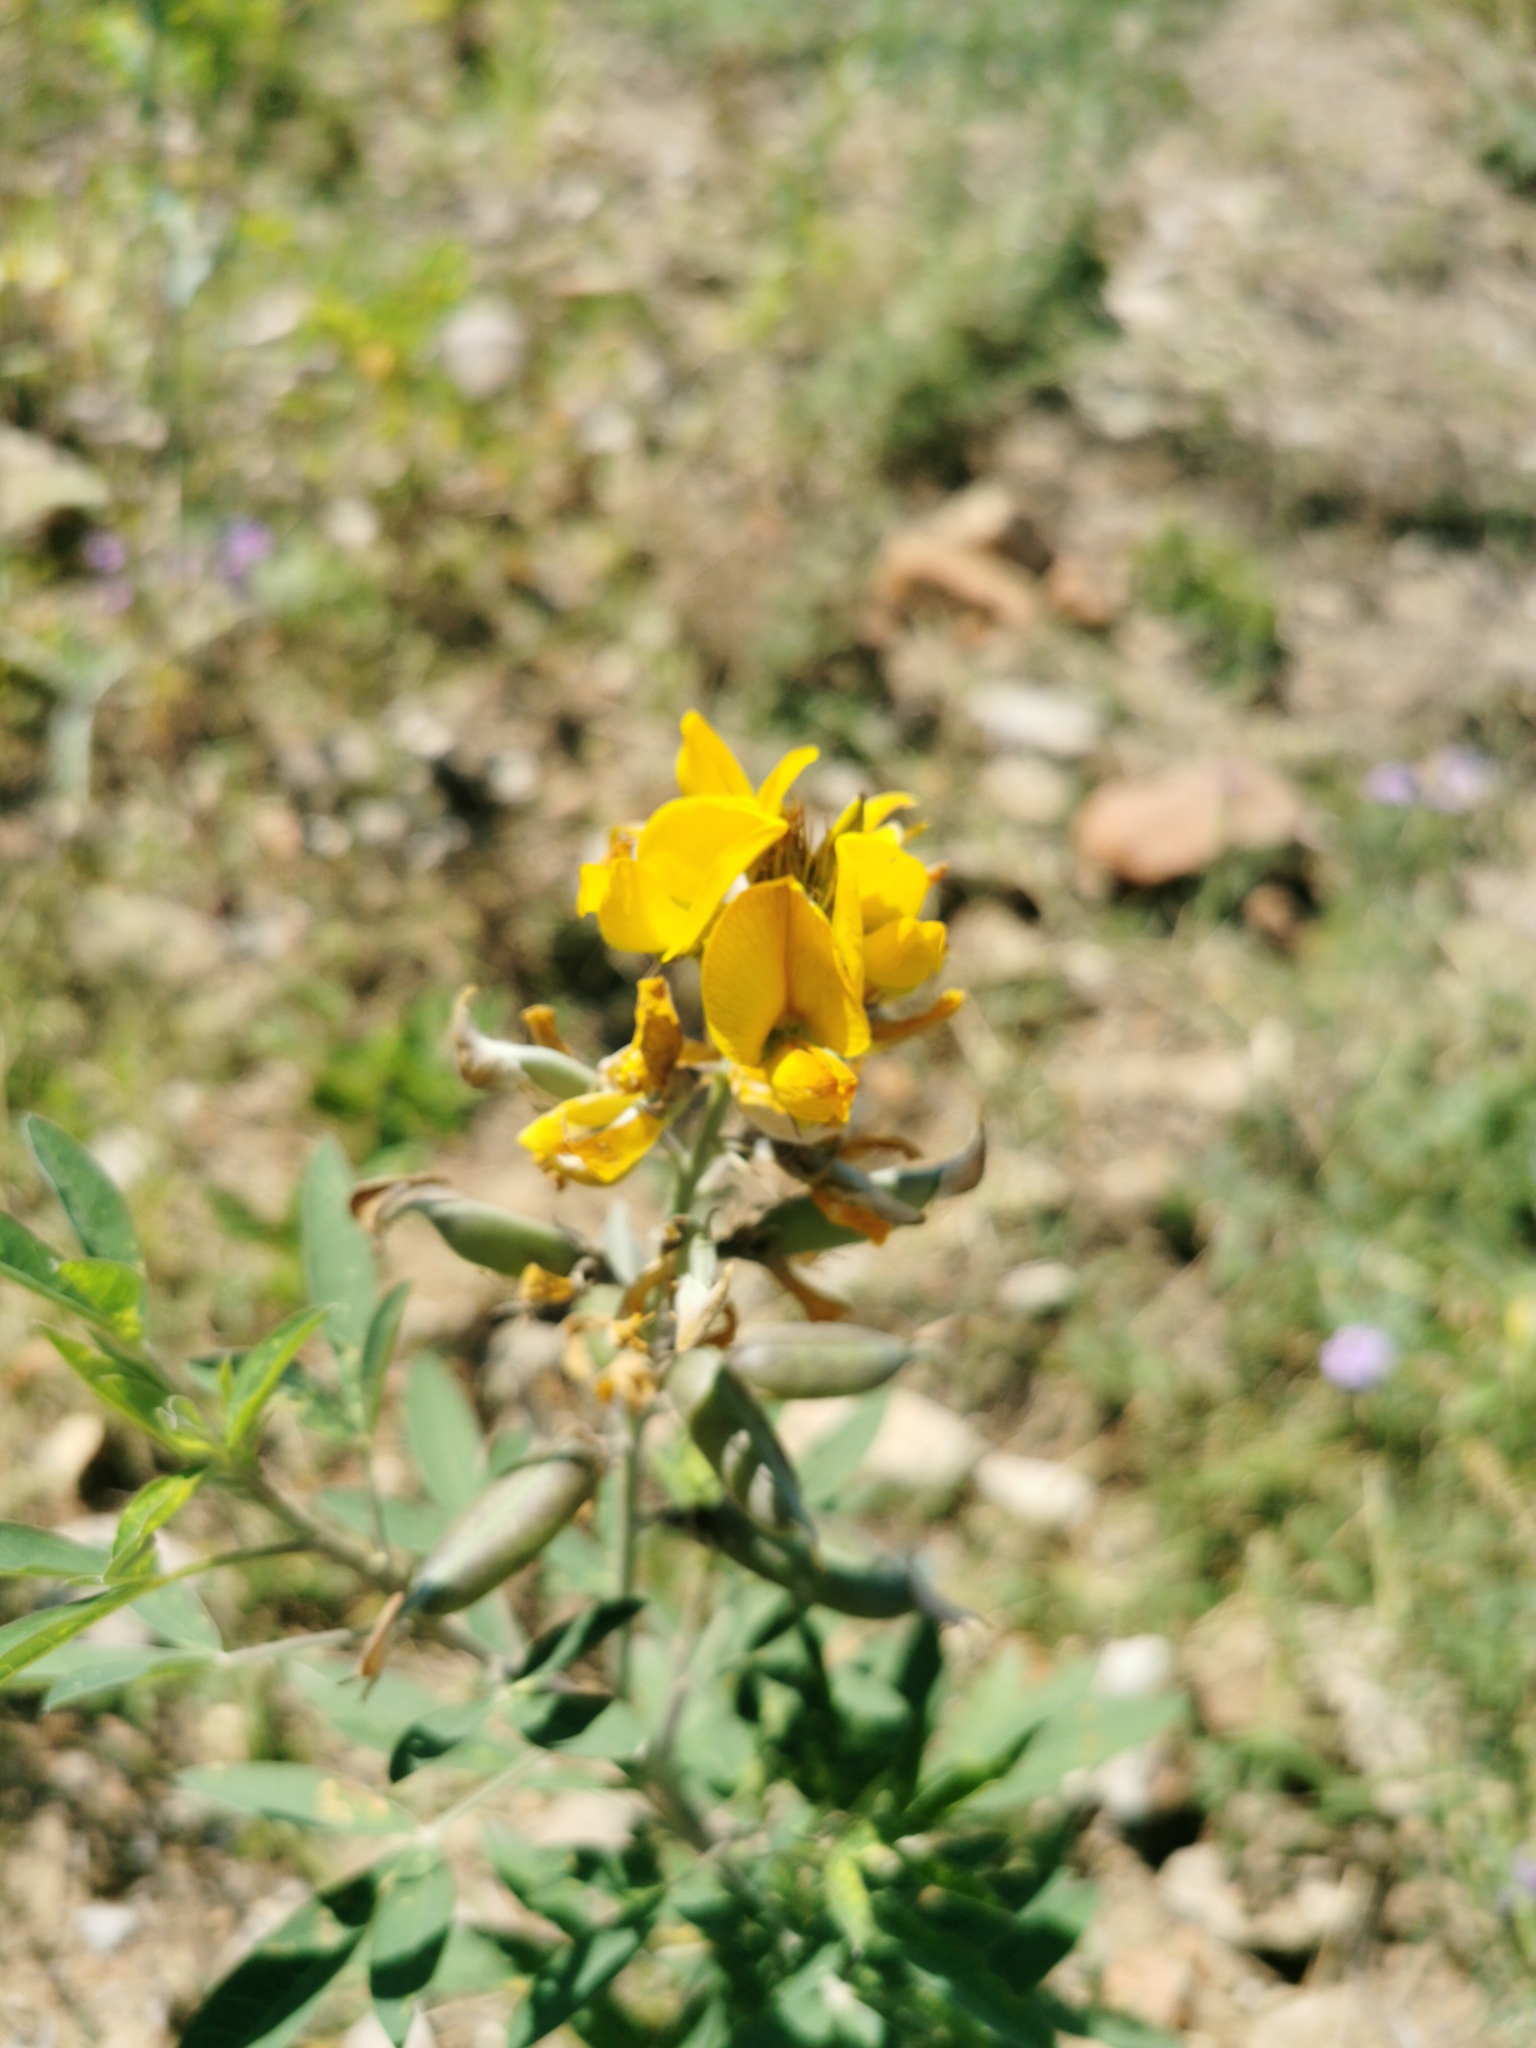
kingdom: Plantae
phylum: Tracheophyta
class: Magnoliopsida
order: Fabales
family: Fabaceae
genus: Crotalaria
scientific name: Crotalaria pumila
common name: Low rattlebox
